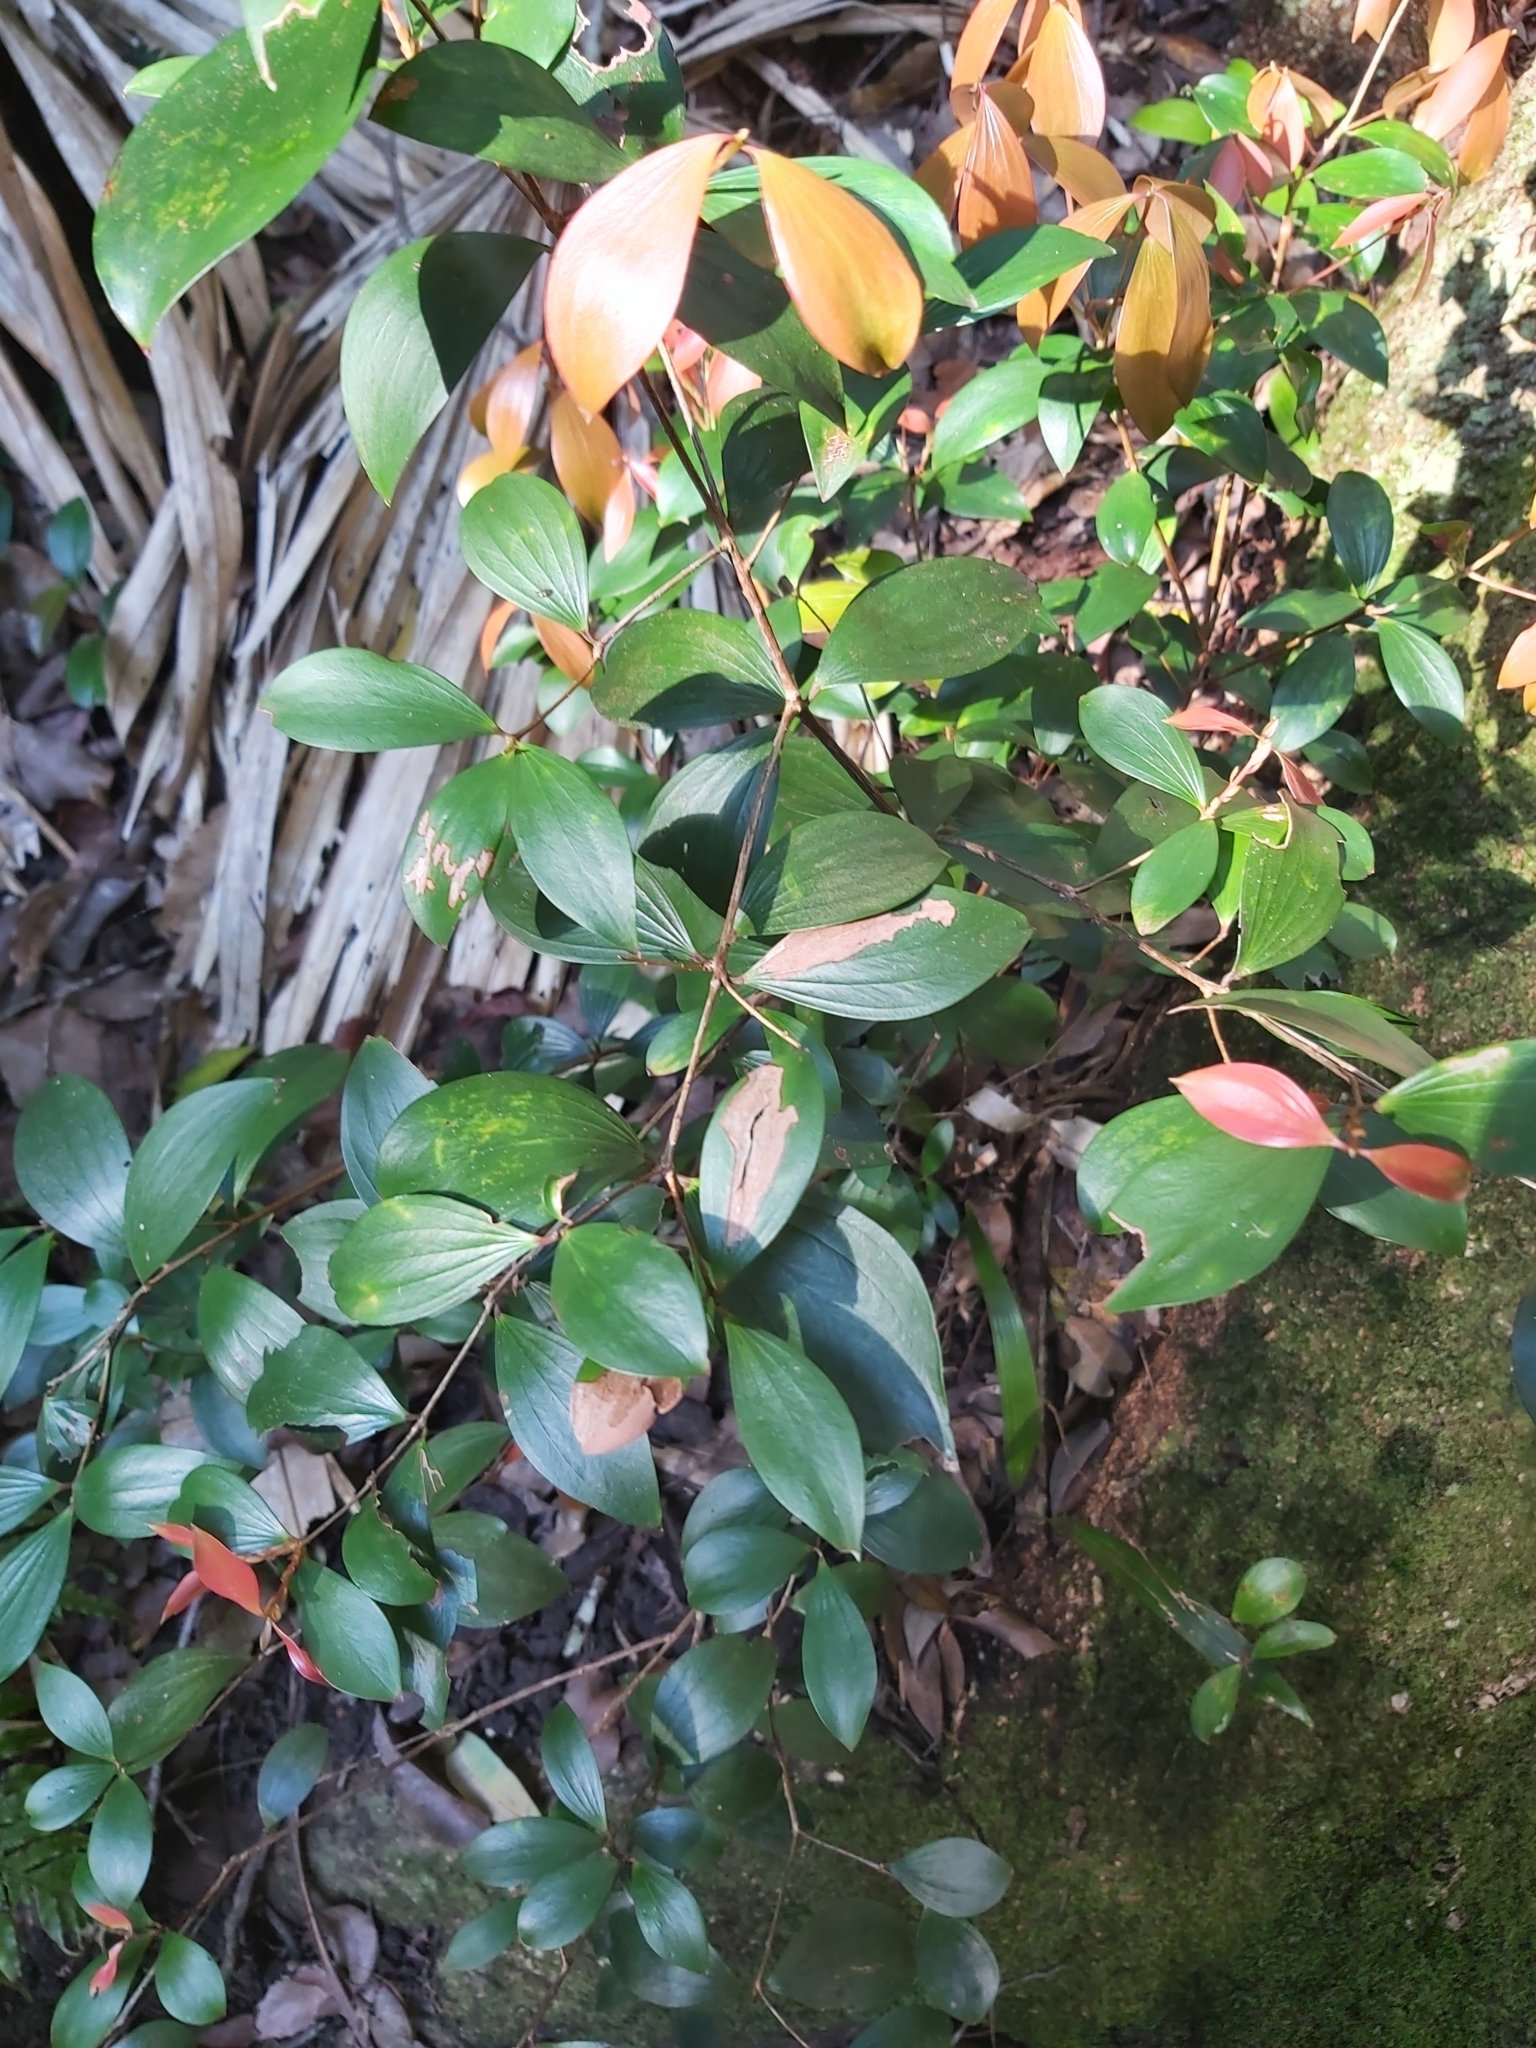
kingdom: Plantae
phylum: Tracheophyta
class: Magnoliopsida
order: Ericales
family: Ericaceae
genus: Trochocarpa
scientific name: Trochocarpa laurina
